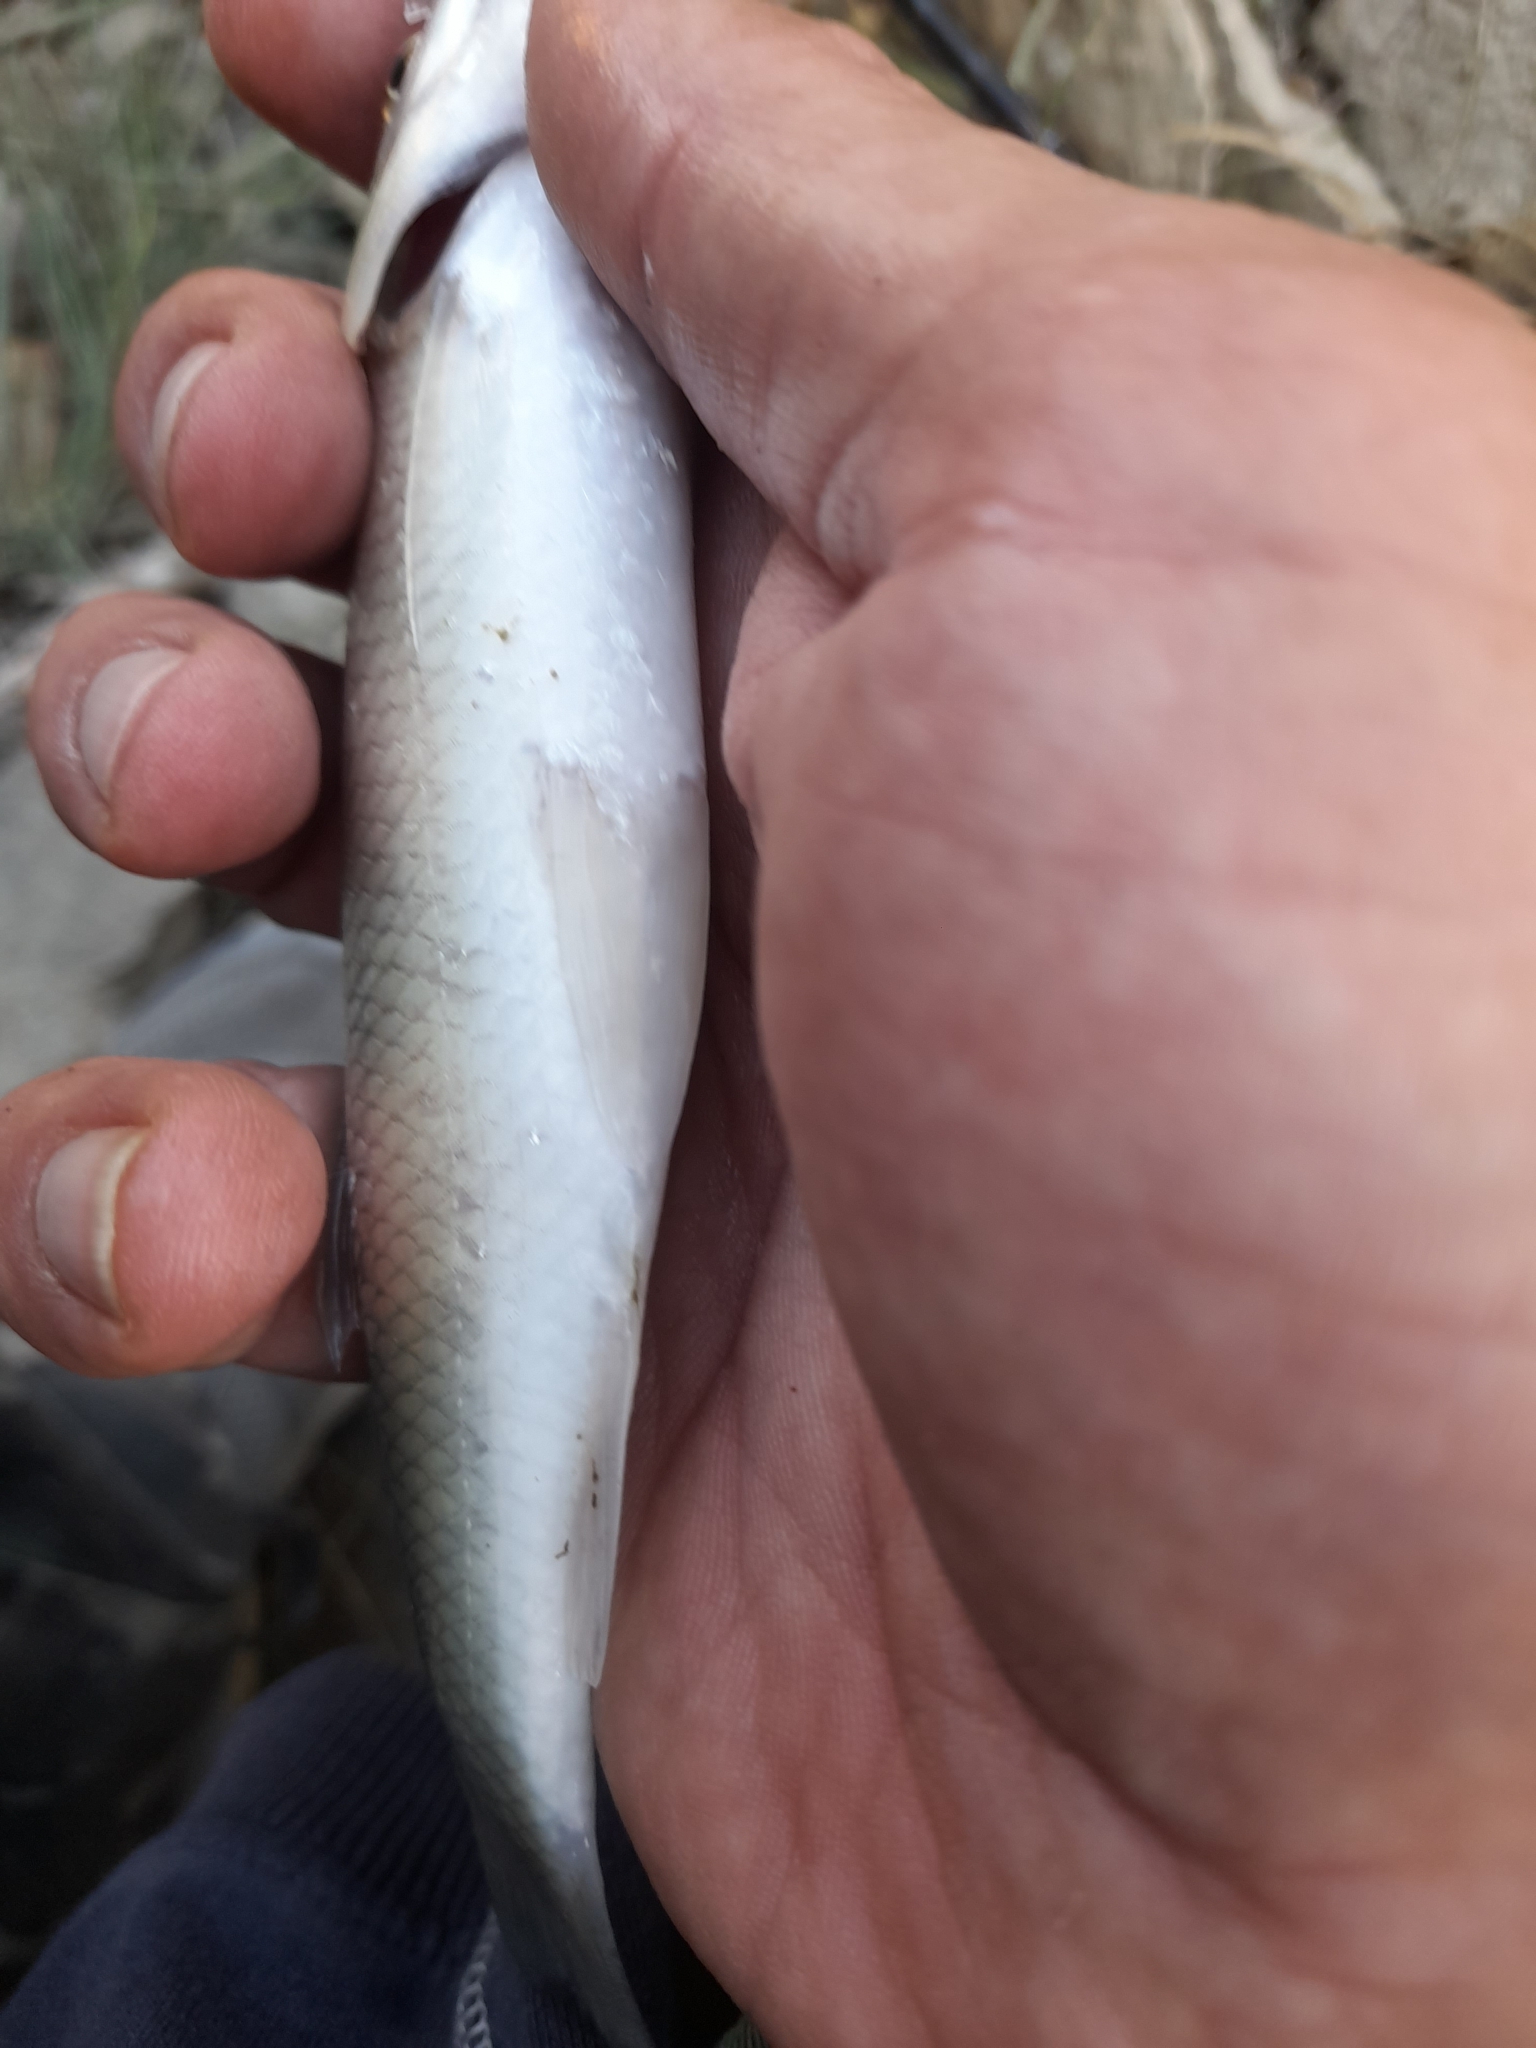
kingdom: Animalia
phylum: Chordata
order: Cypriniformes
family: Cyprinidae
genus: Squalius
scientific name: Squalius squalus
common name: Italian chub
